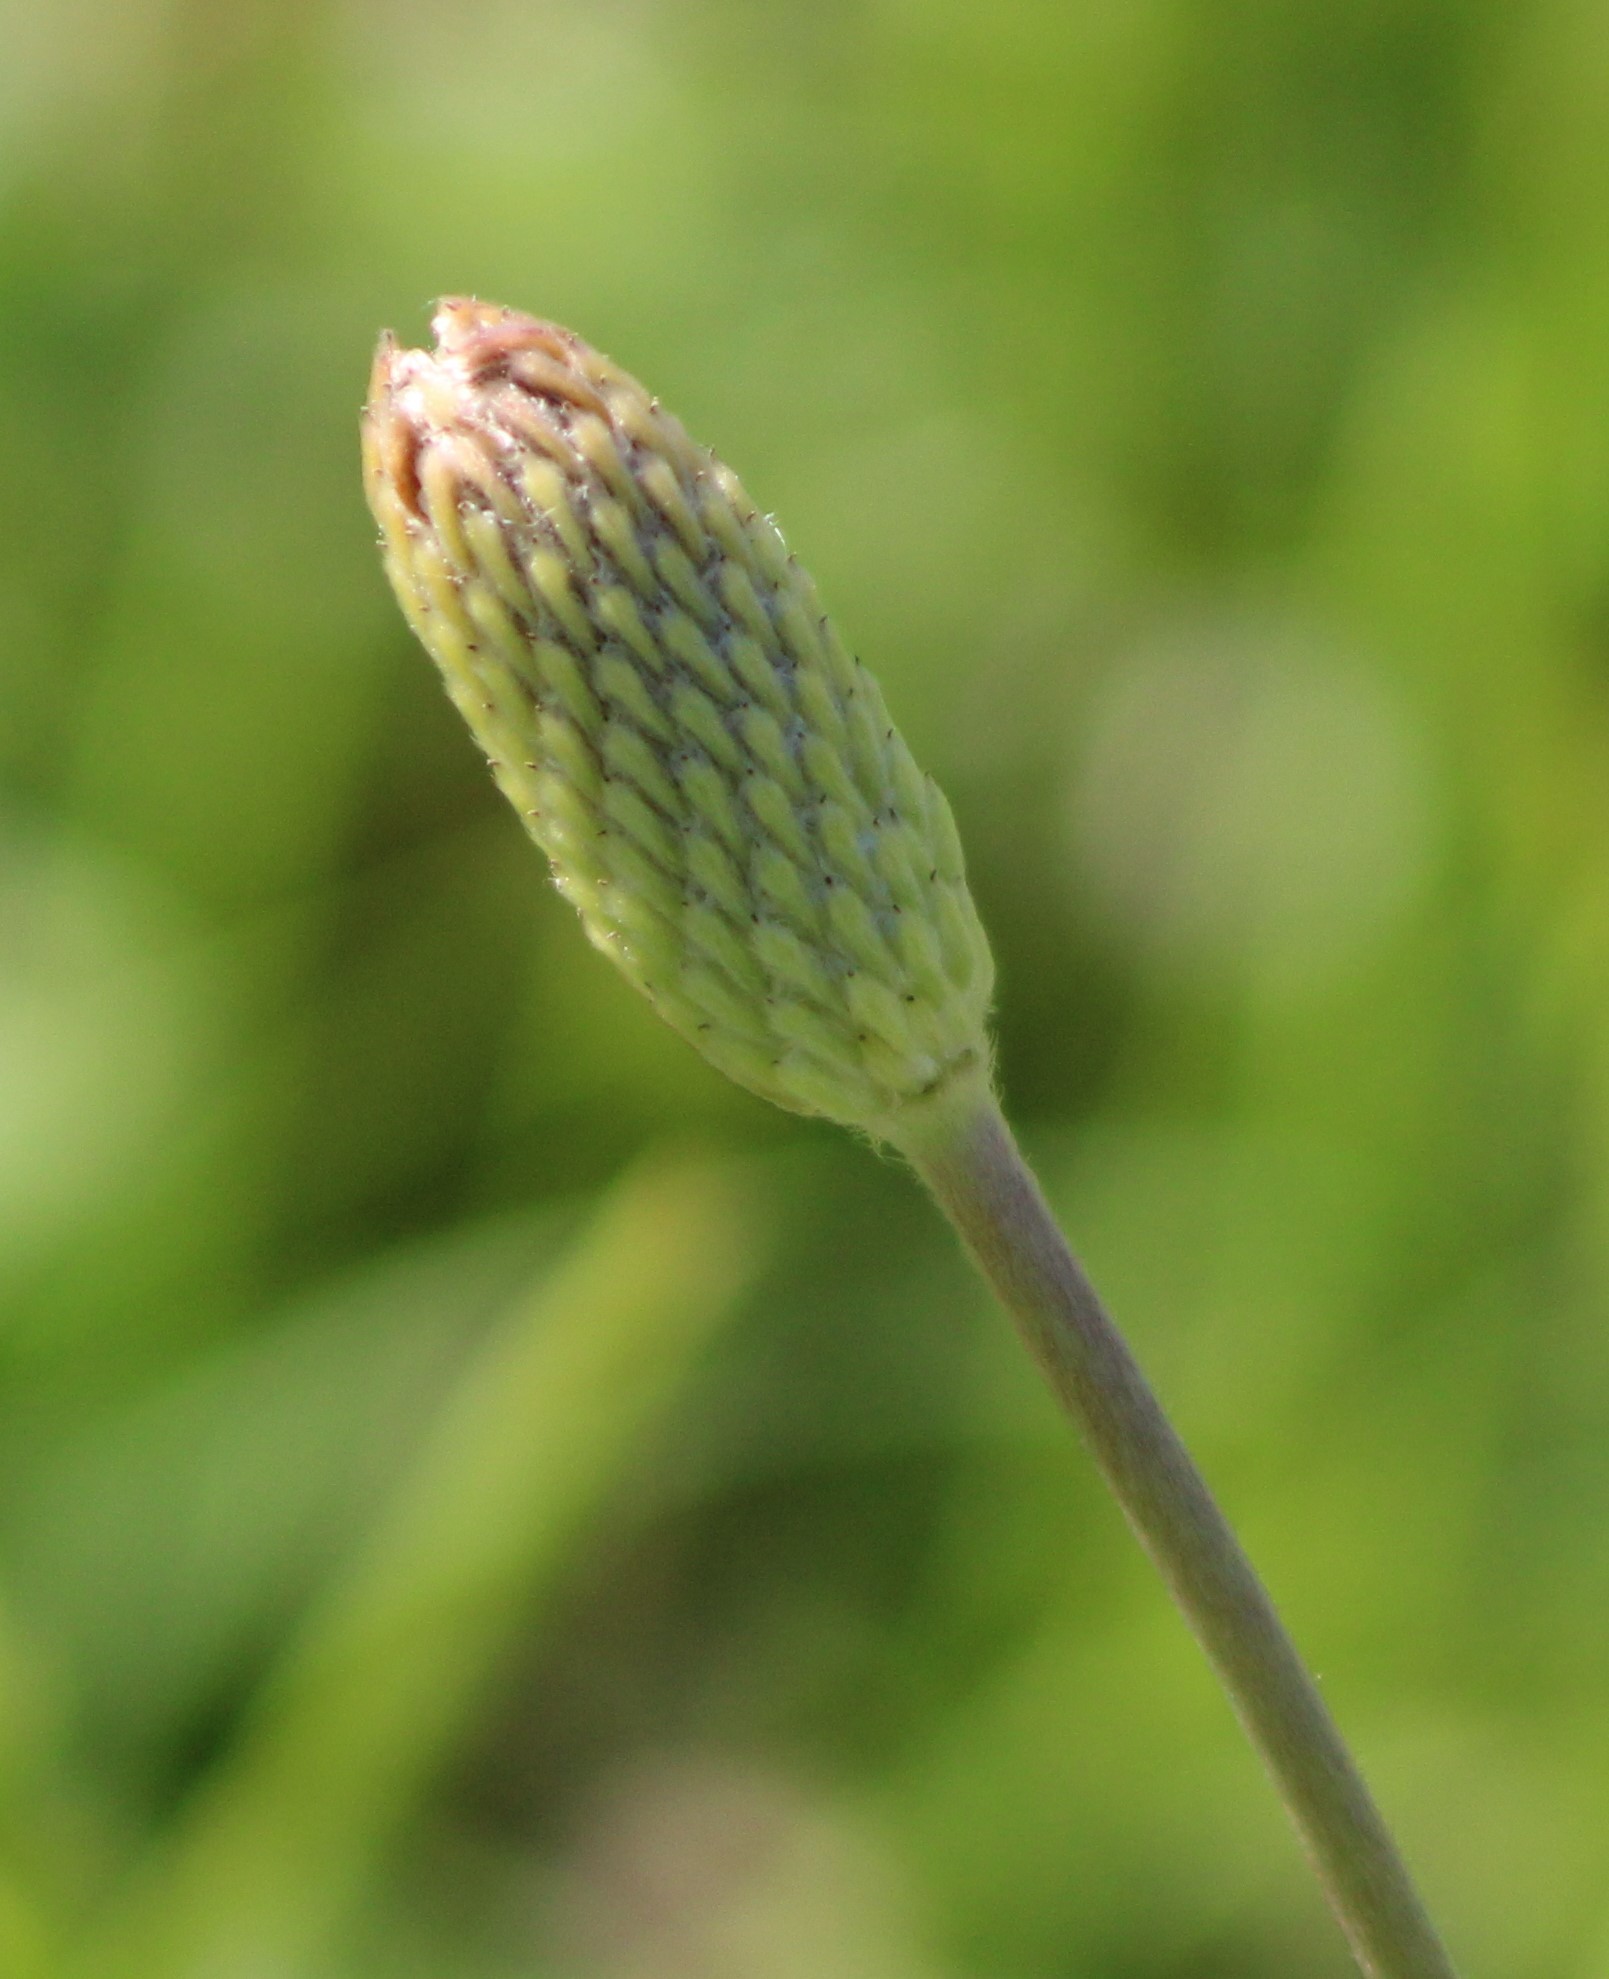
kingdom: Plantae
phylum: Tracheophyta
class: Magnoliopsida
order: Ranunculales
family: Ranunculaceae
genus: Anemone
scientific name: Anemone berlandieri
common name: Ten-petal anemone
